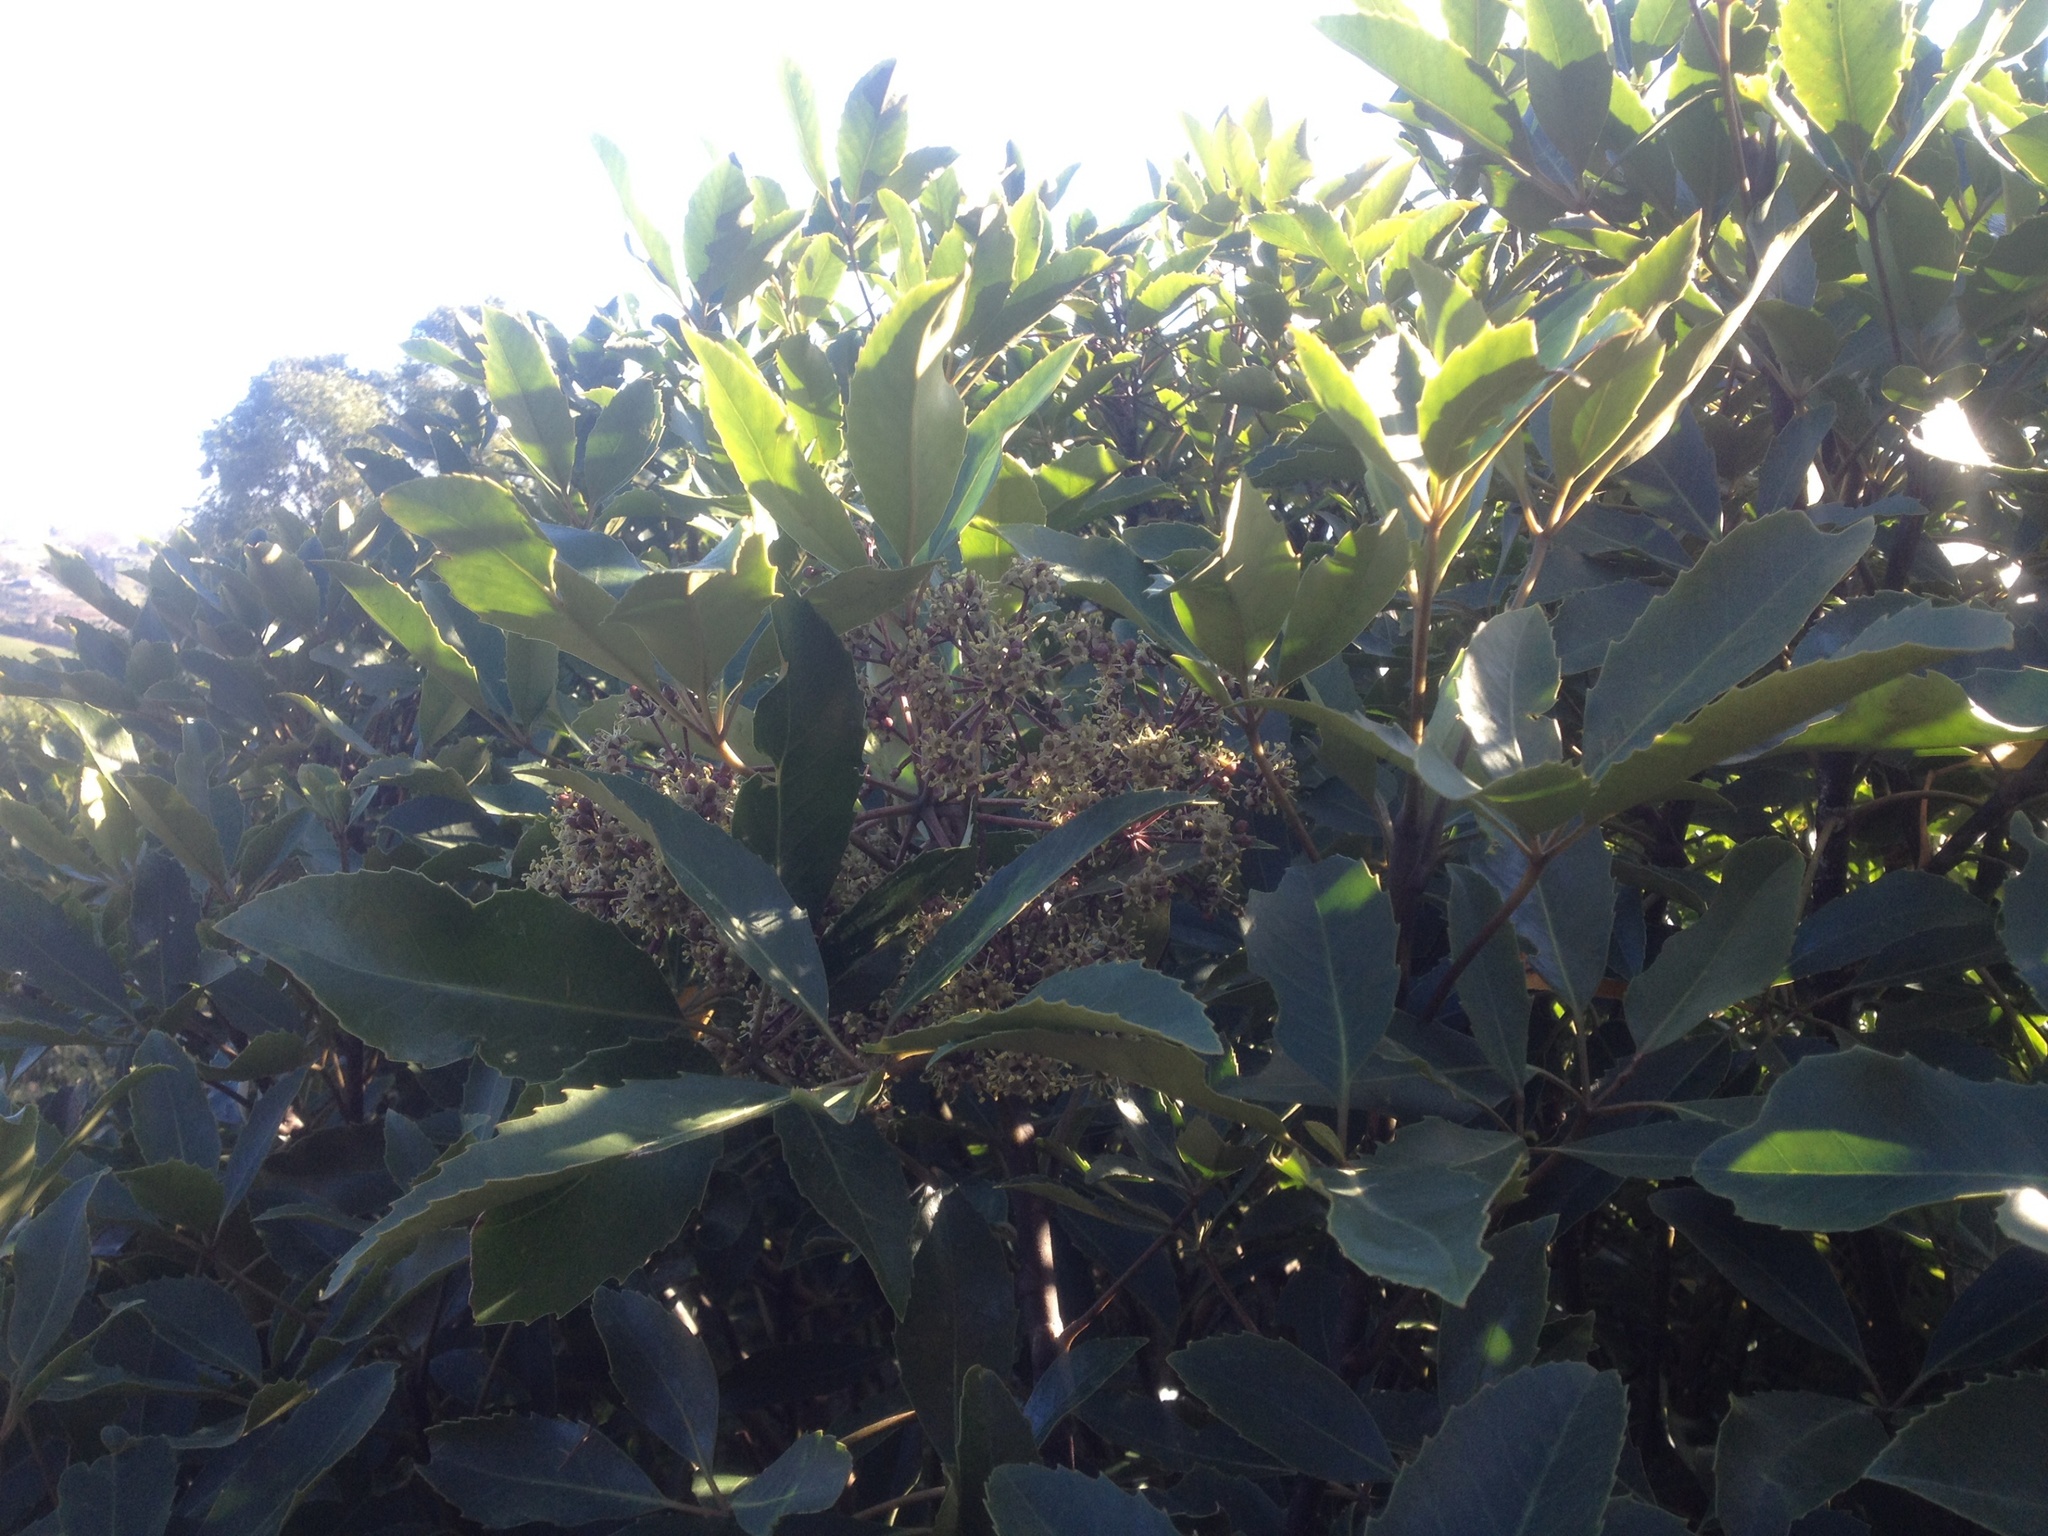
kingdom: Plantae
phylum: Tracheophyta
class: Magnoliopsida
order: Apiales
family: Araliaceae
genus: Neopanax
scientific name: Neopanax arboreus
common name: Five-fingers
